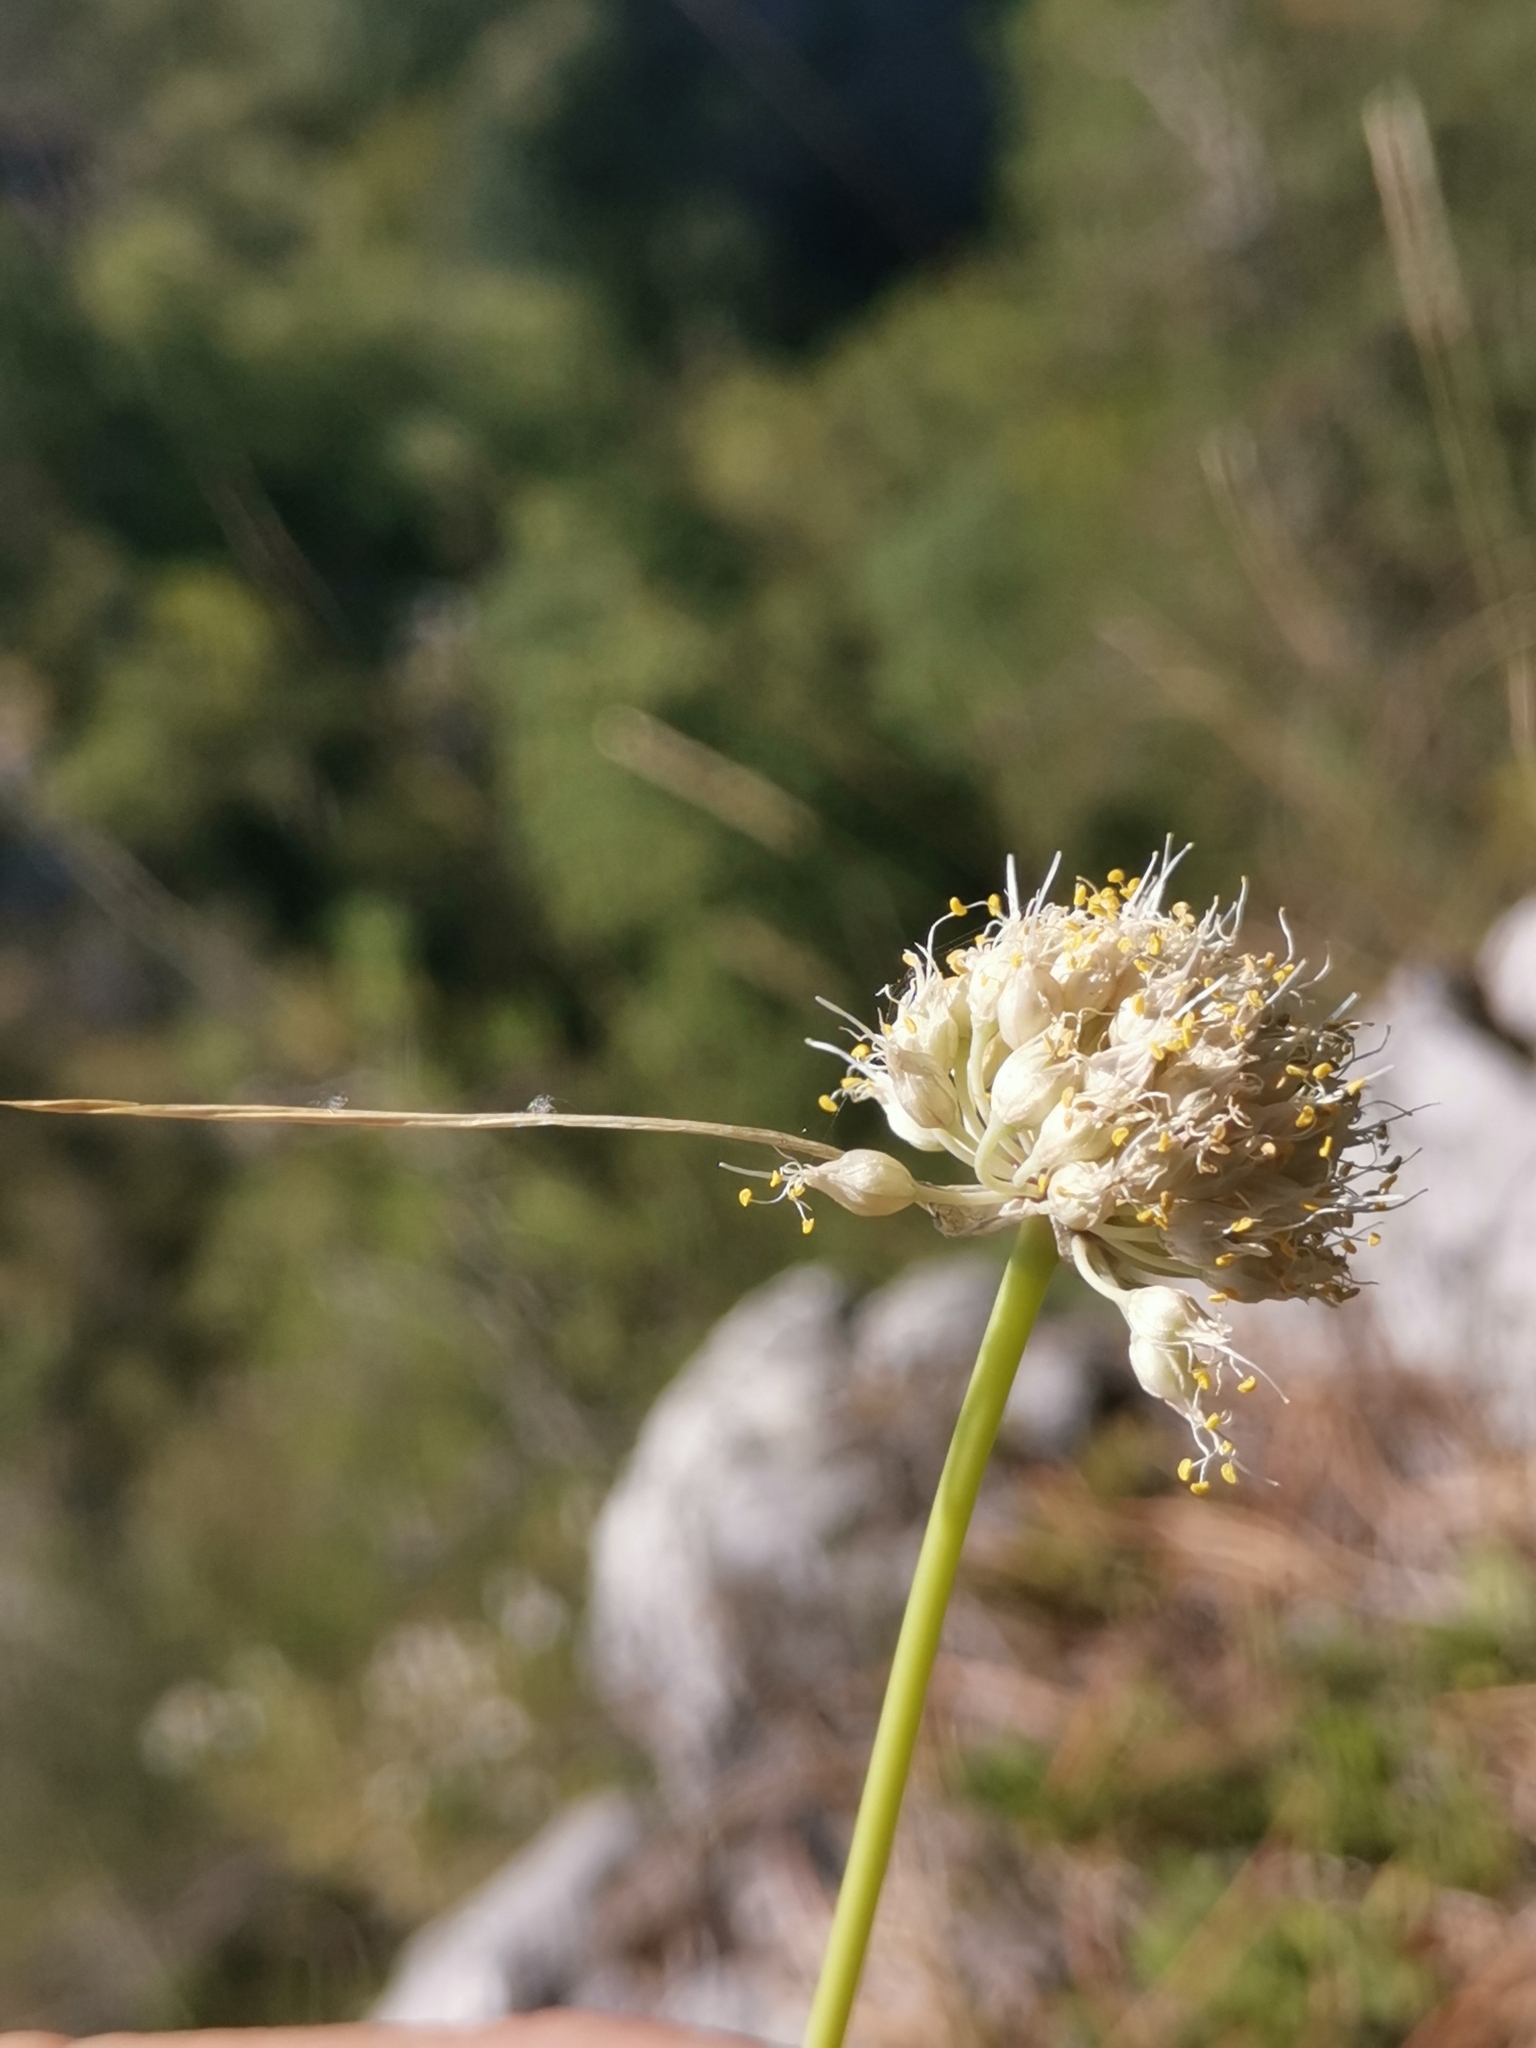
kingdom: Plantae
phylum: Tracheophyta
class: Liliopsida
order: Asparagales
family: Amaryllidaceae
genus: Allium
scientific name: Allium horvatii
